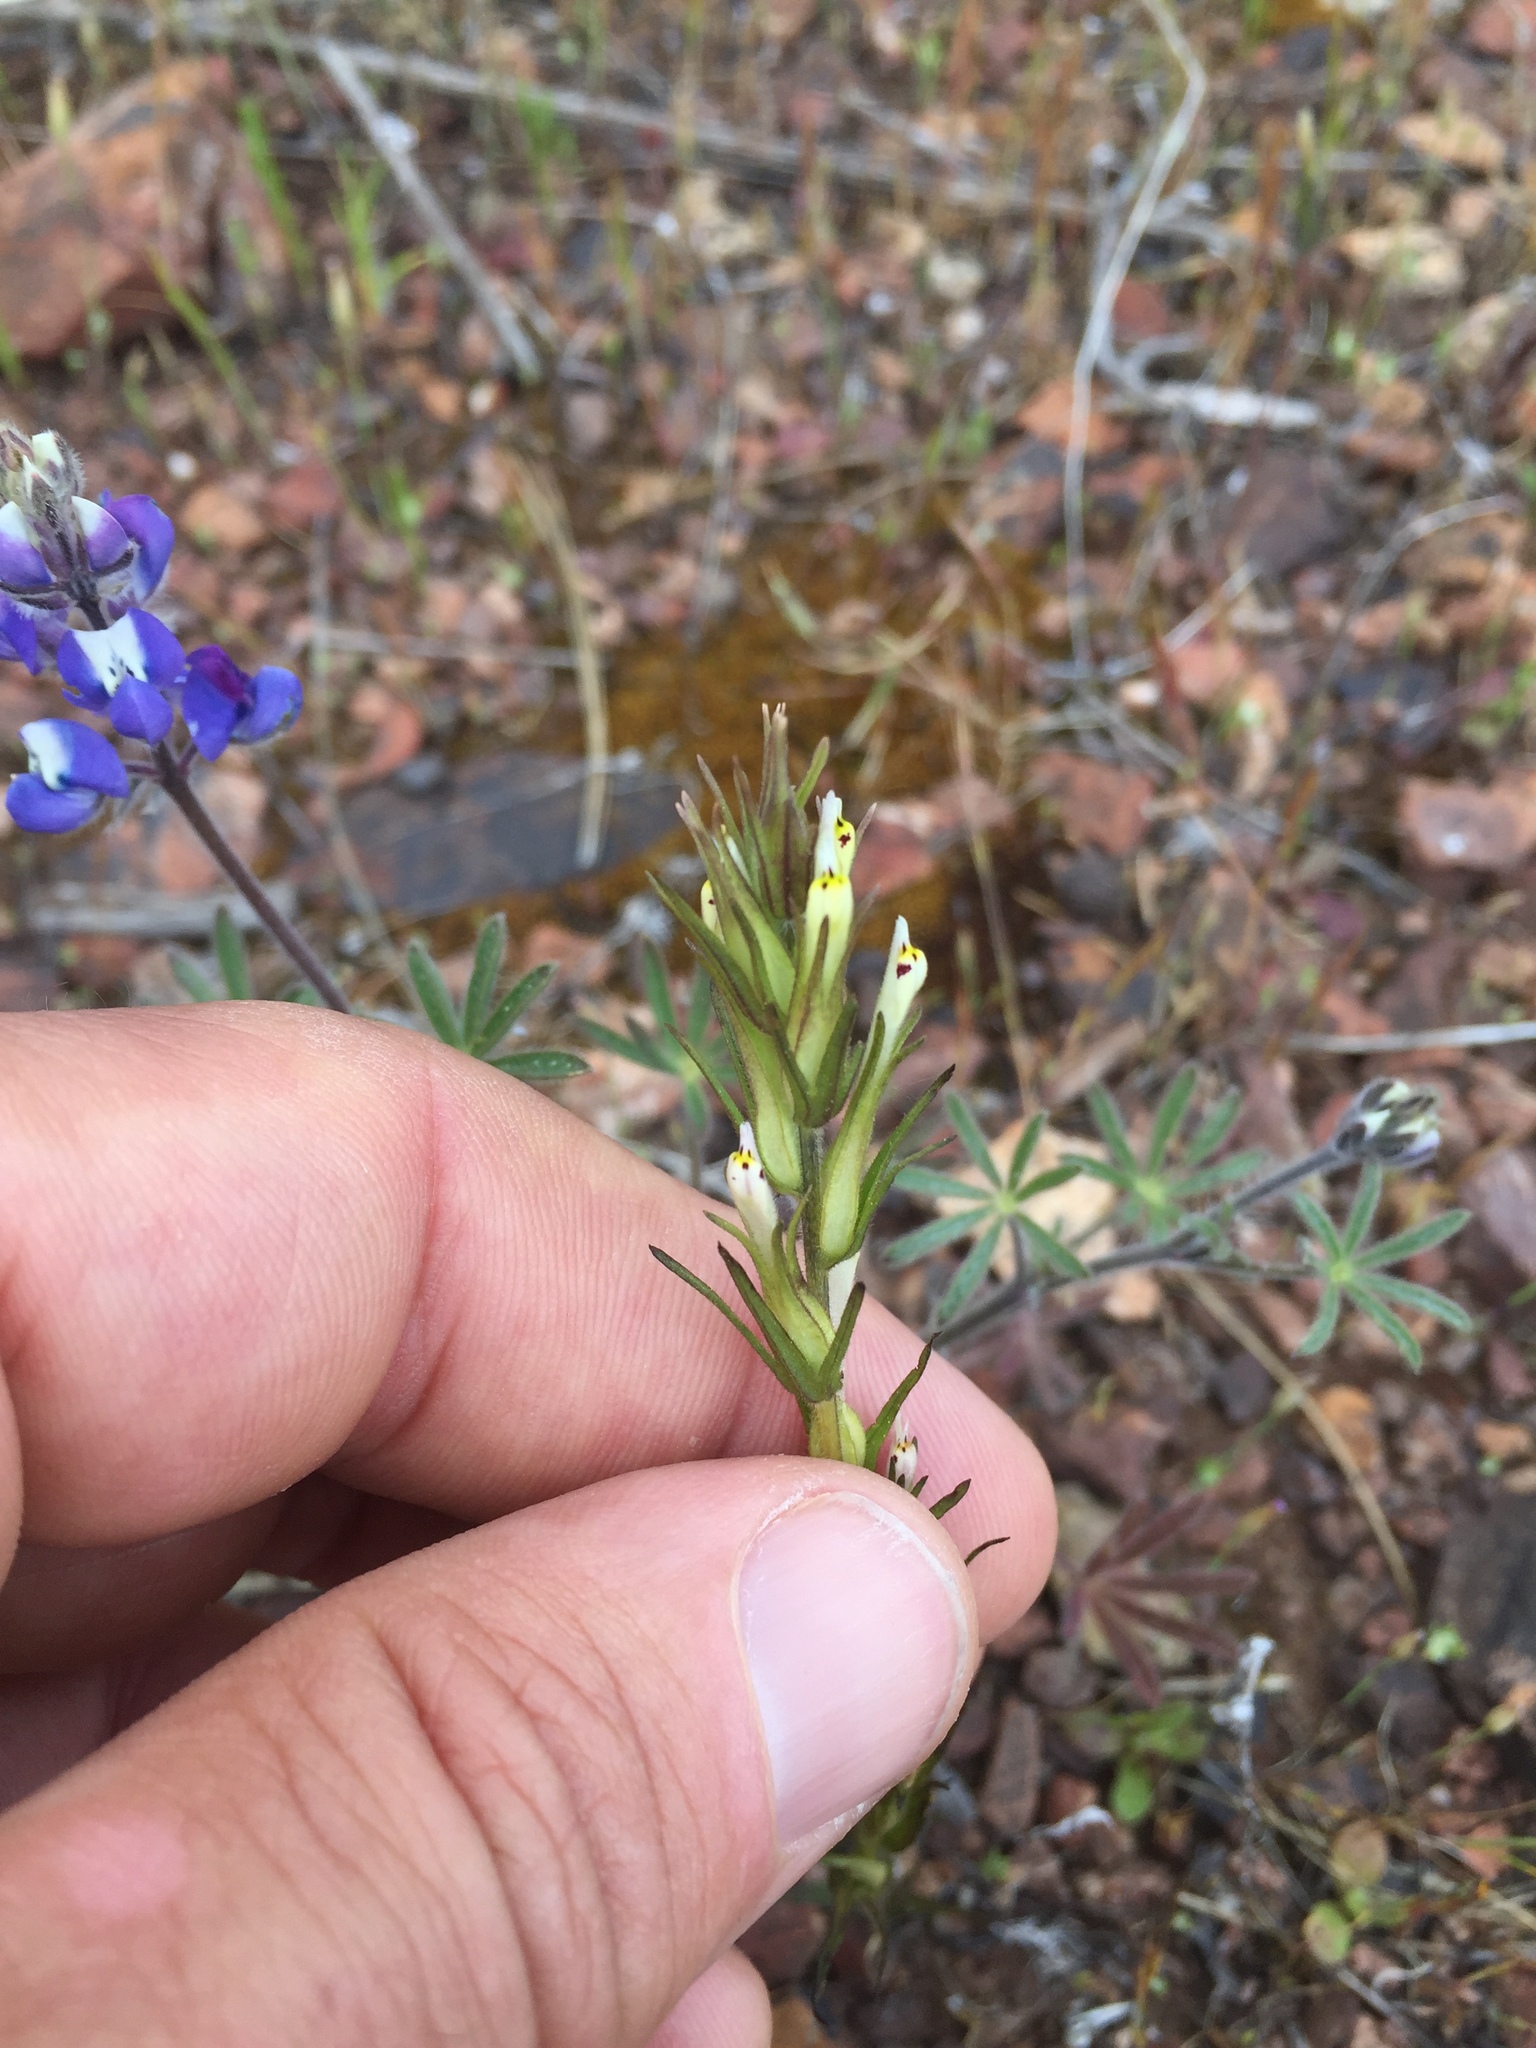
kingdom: Plantae
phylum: Tracheophyta
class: Magnoliopsida
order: Lamiales
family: Orobanchaceae
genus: Castilleja
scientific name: Castilleja attenuata
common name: Valley tassels
